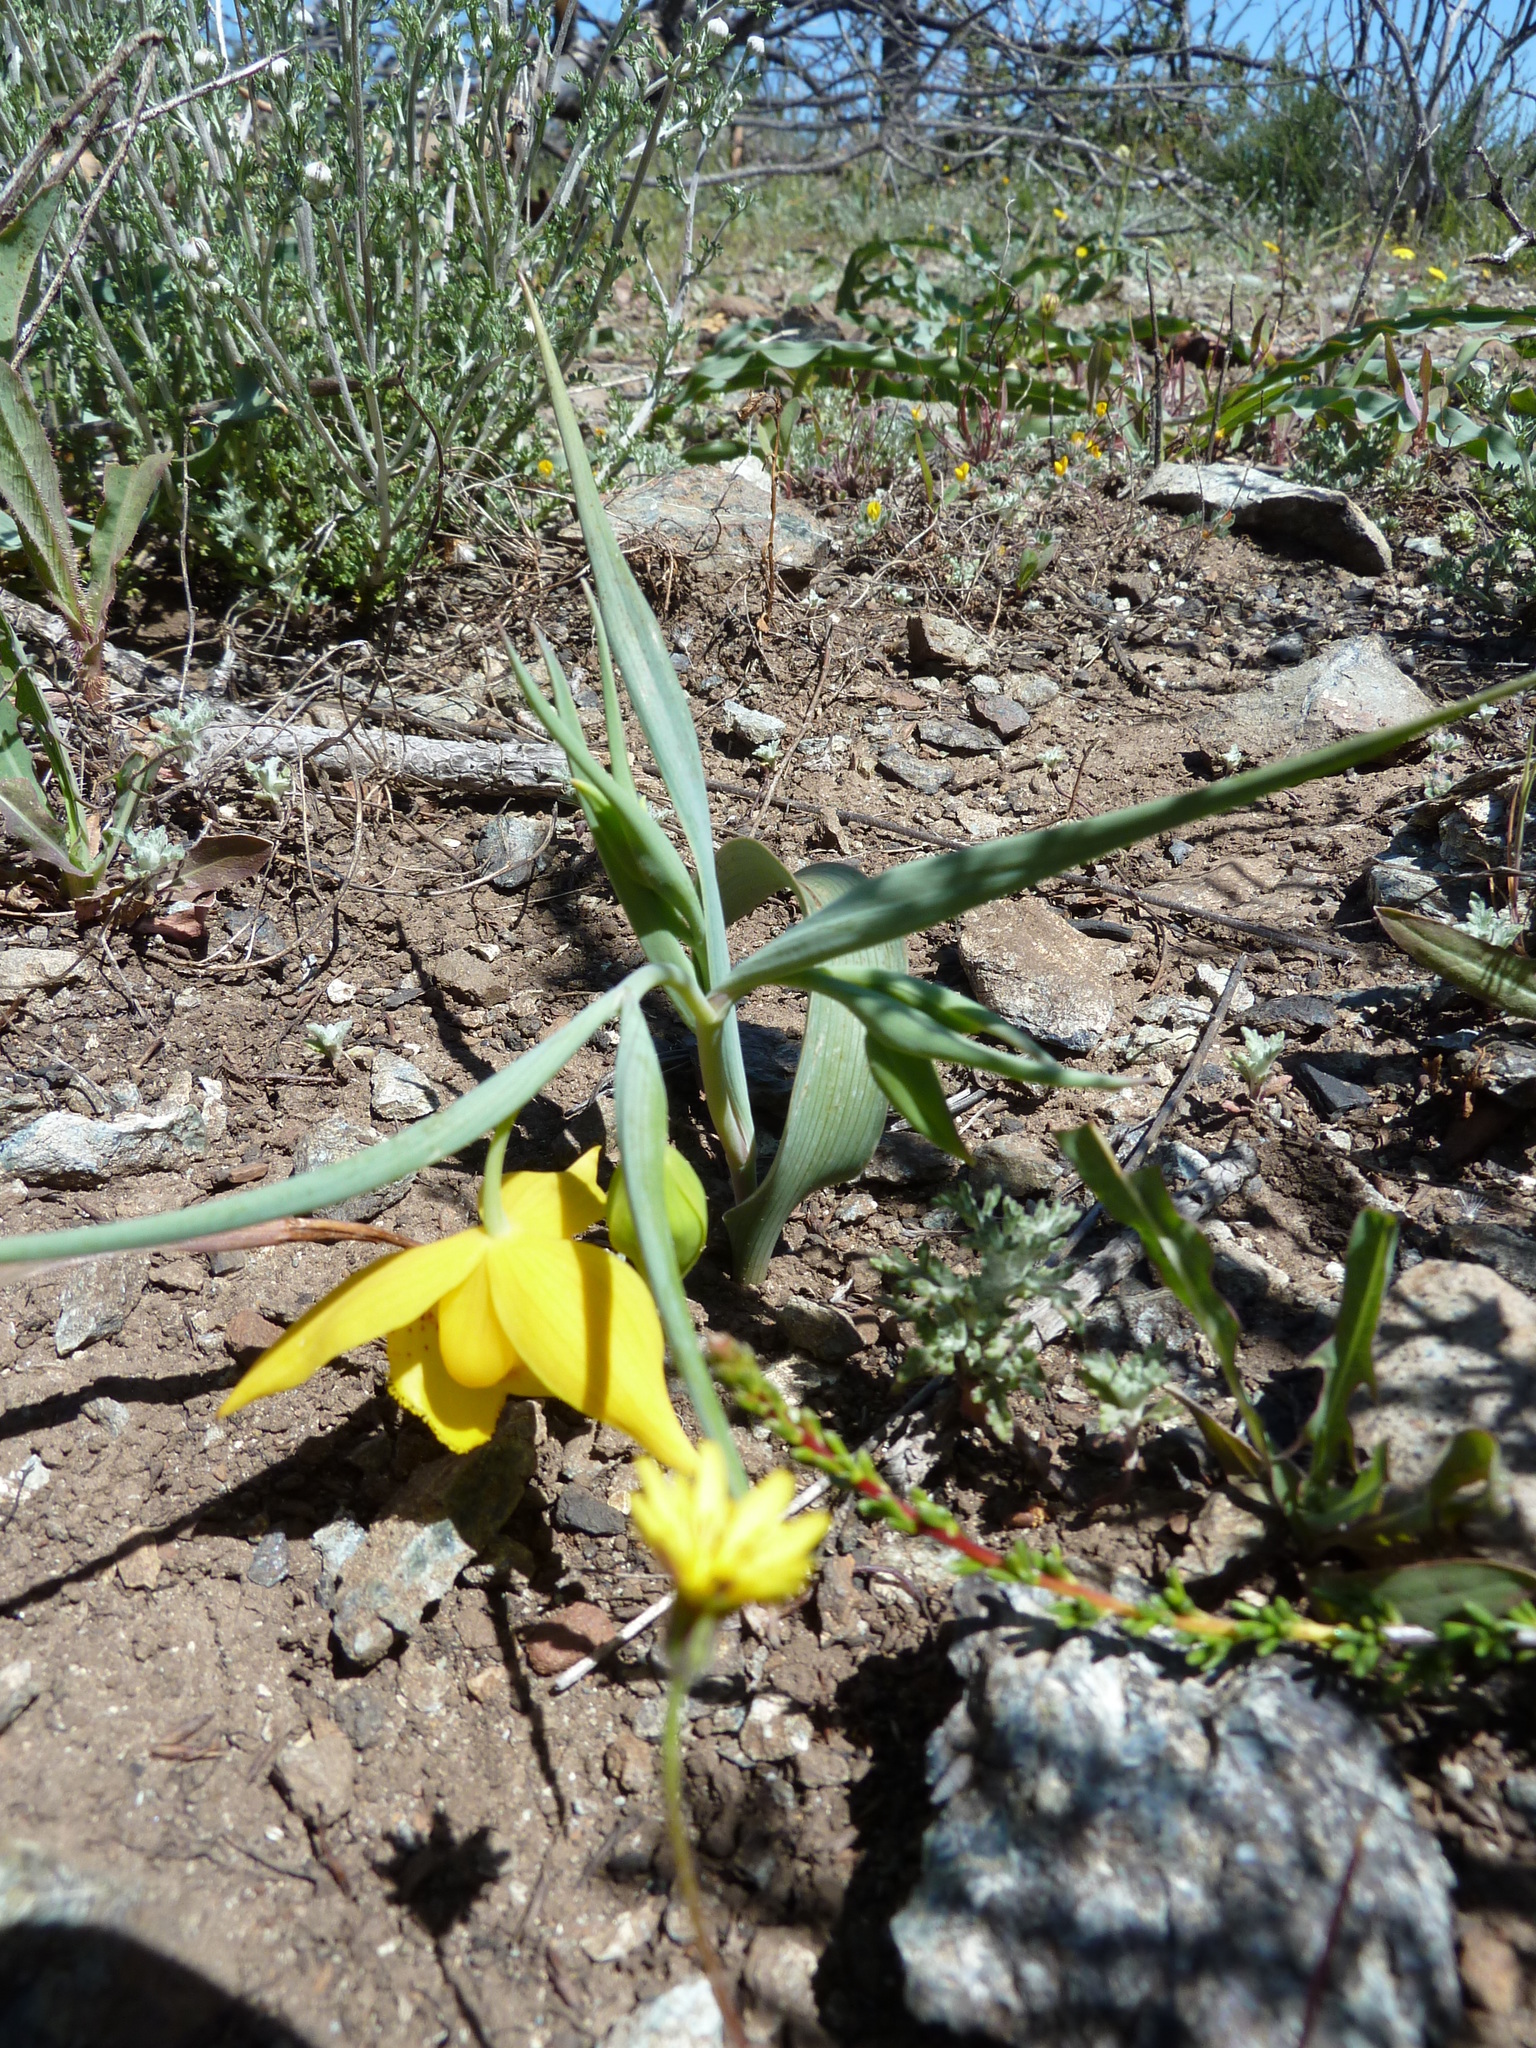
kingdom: Plantae
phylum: Tracheophyta
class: Liliopsida
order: Liliales
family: Liliaceae
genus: Calochortus
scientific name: Calochortus amabilis
